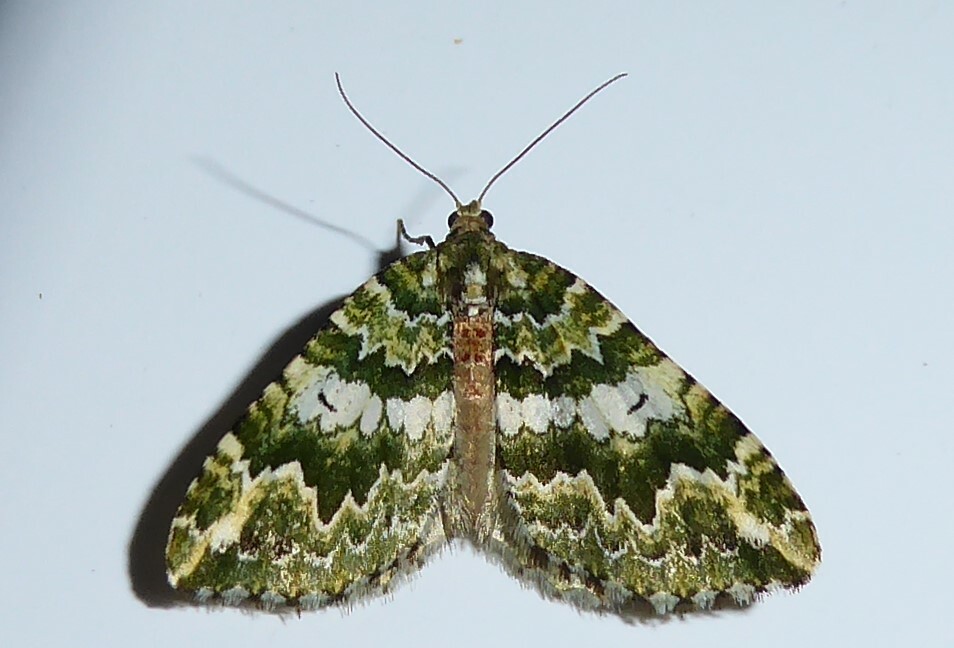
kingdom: Animalia
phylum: Arthropoda
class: Insecta
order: Lepidoptera
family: Geometridae
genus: Asaphodes
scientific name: Asaphodes beata
